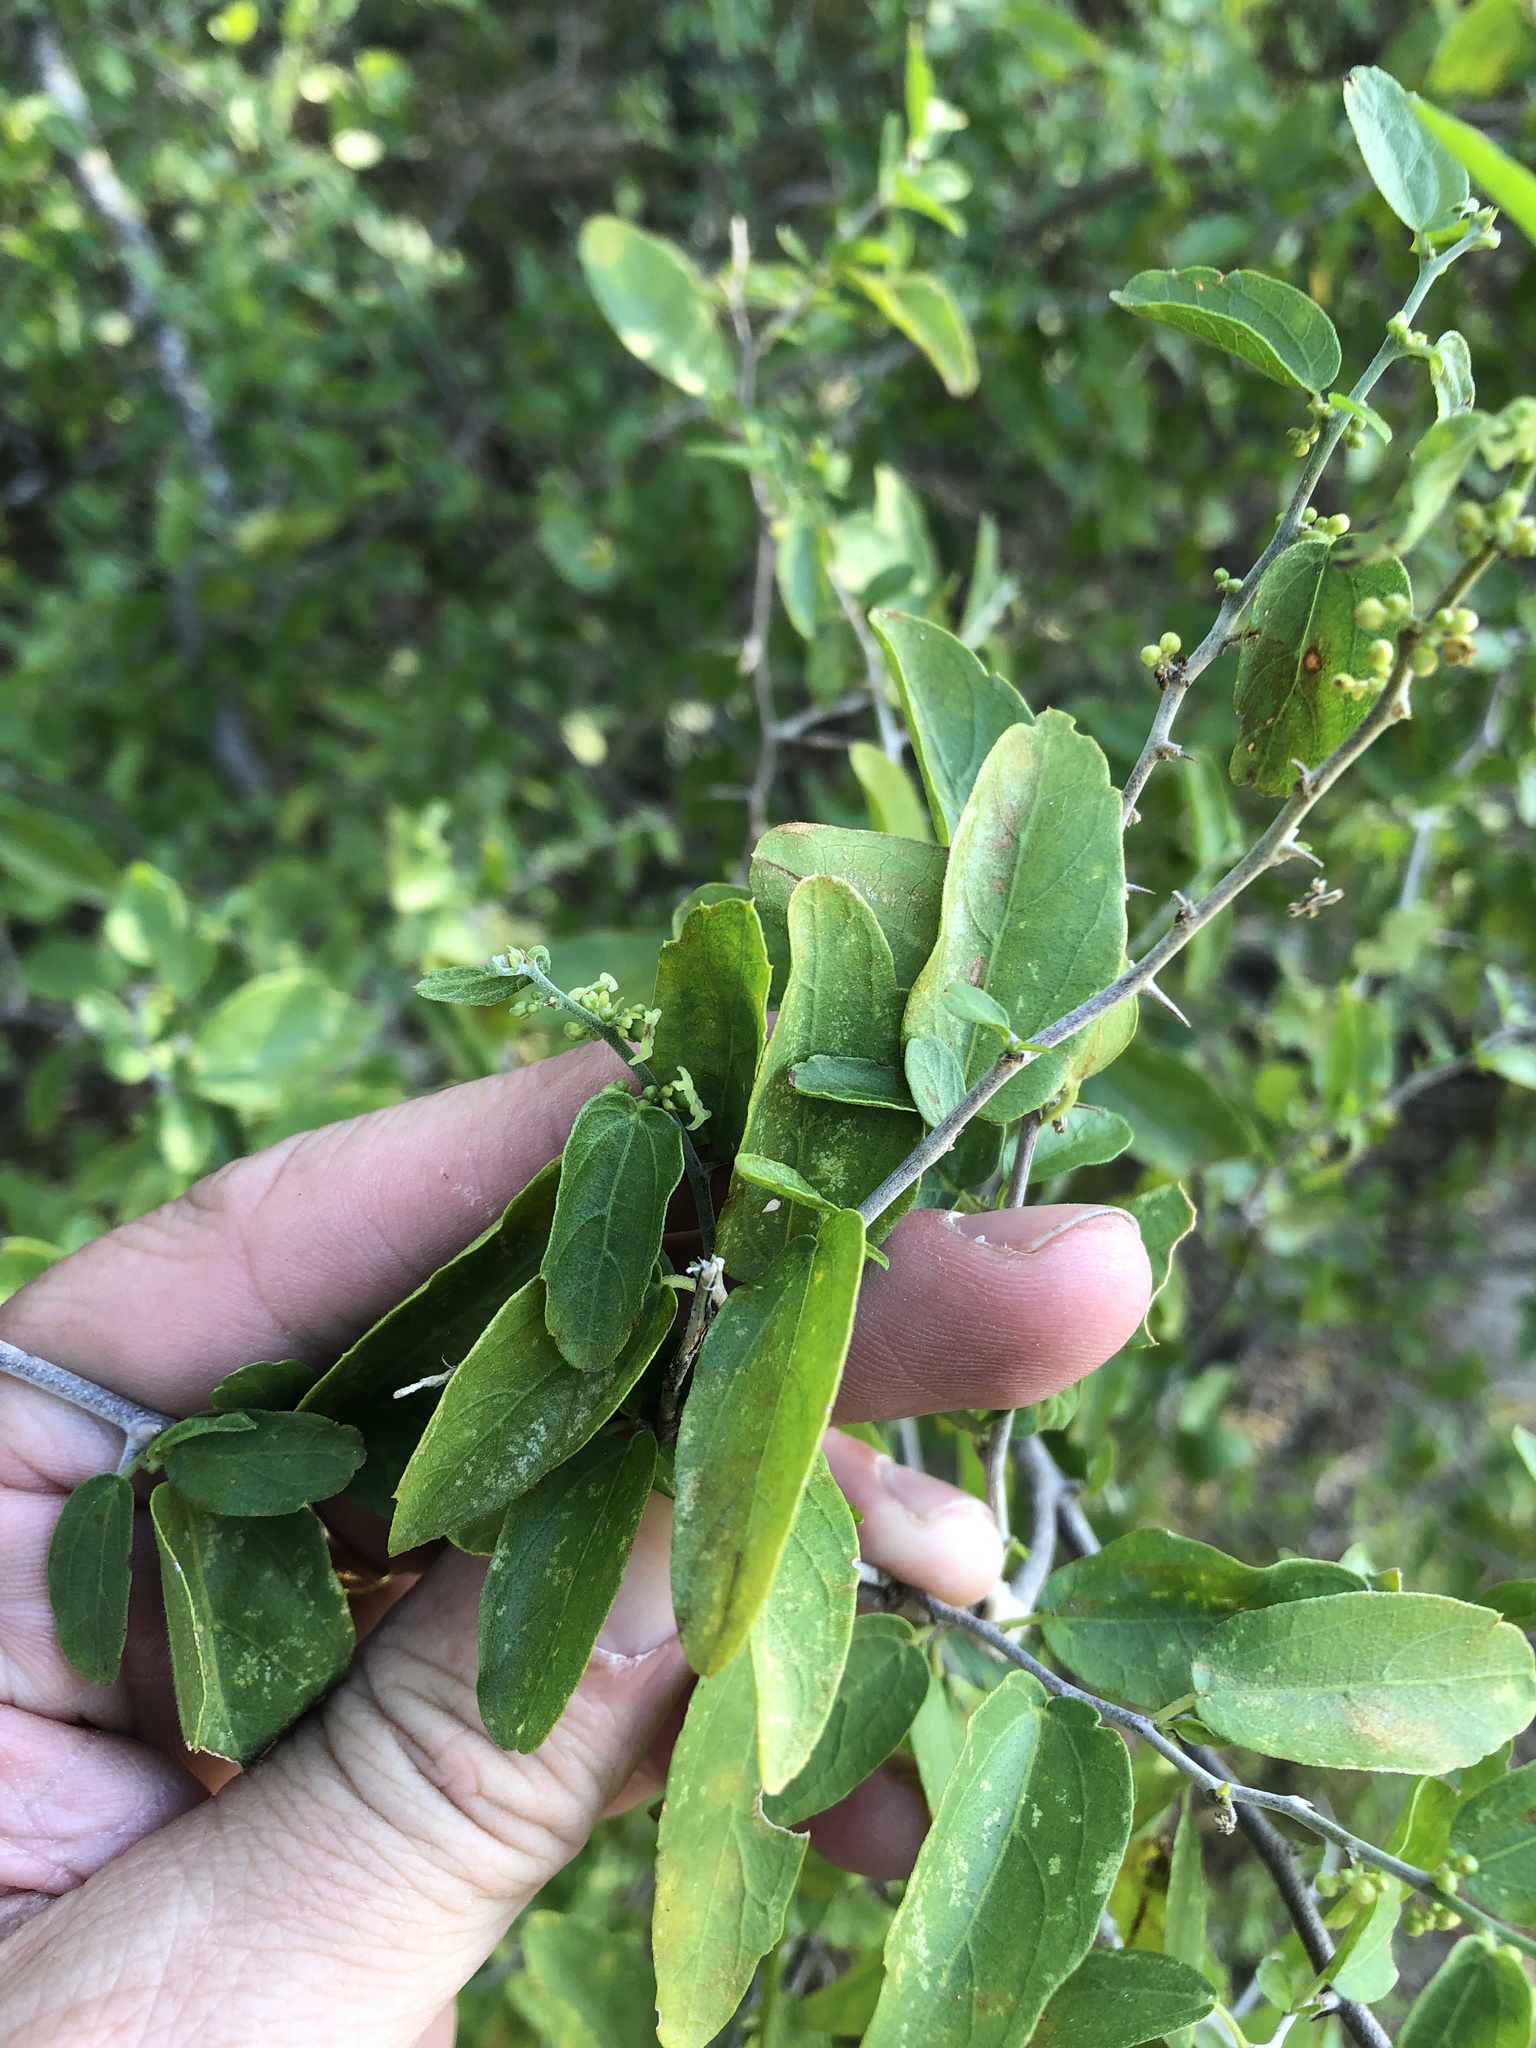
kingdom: Plantae
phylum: Tracheophyta
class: Magnoliopsida
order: Rosales
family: Cannabaceae
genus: Celtis
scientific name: Celtis pallida
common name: Desert hackberry
